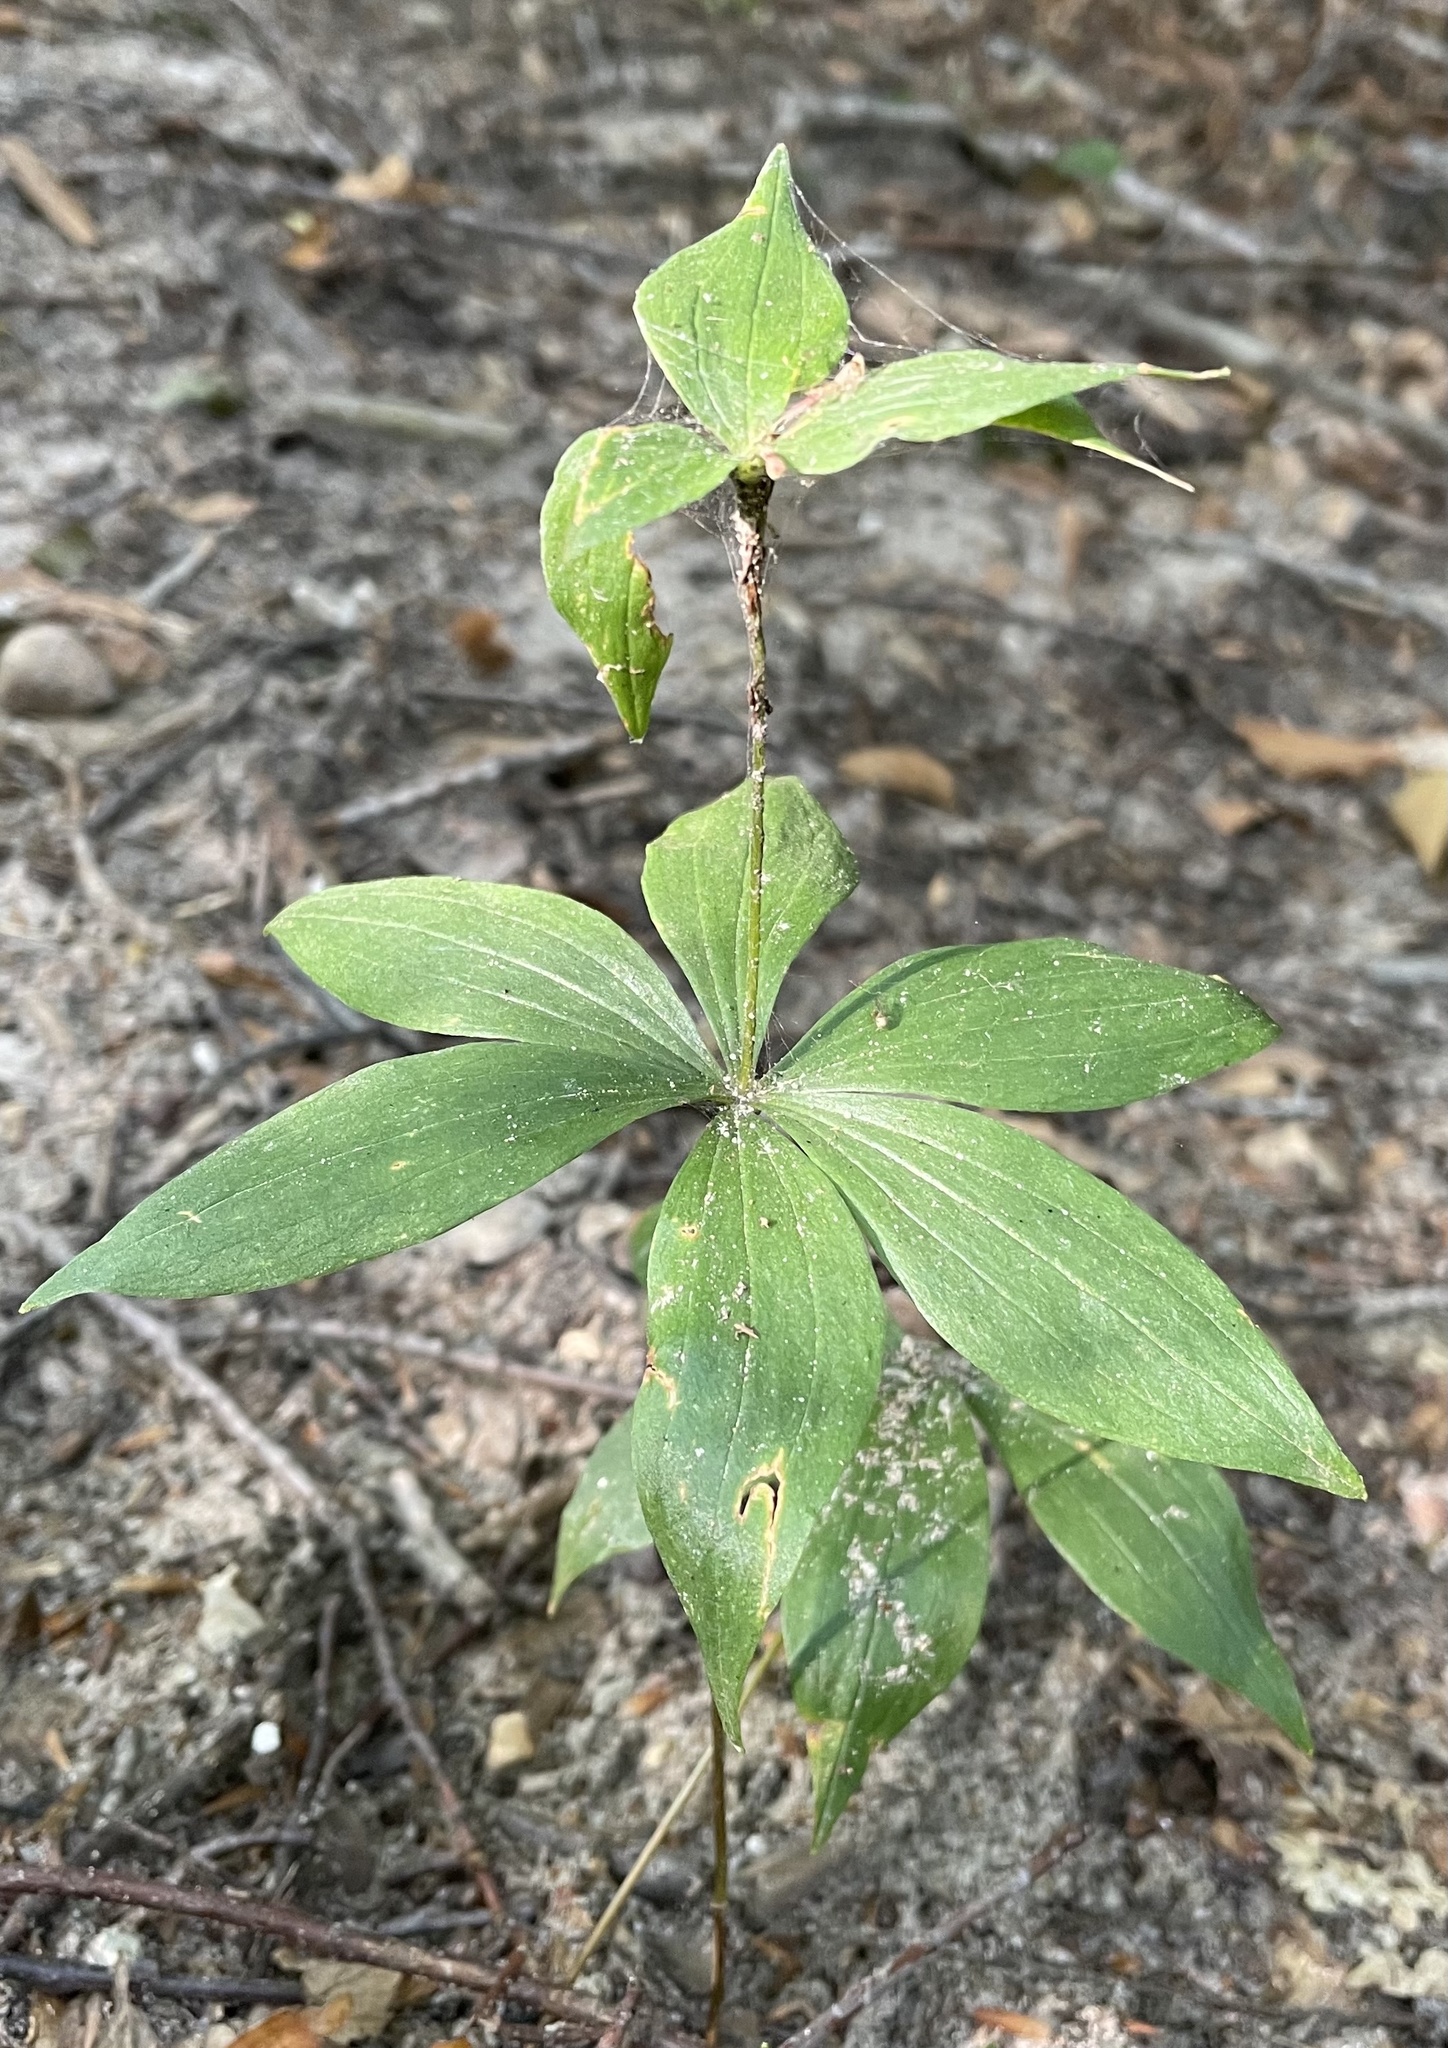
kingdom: Plantae
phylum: Tracheophyta
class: Liliopsida
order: Liliales
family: Liliaceae
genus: Medeola
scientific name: Medeola virginiana
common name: Indian cucumber-root
